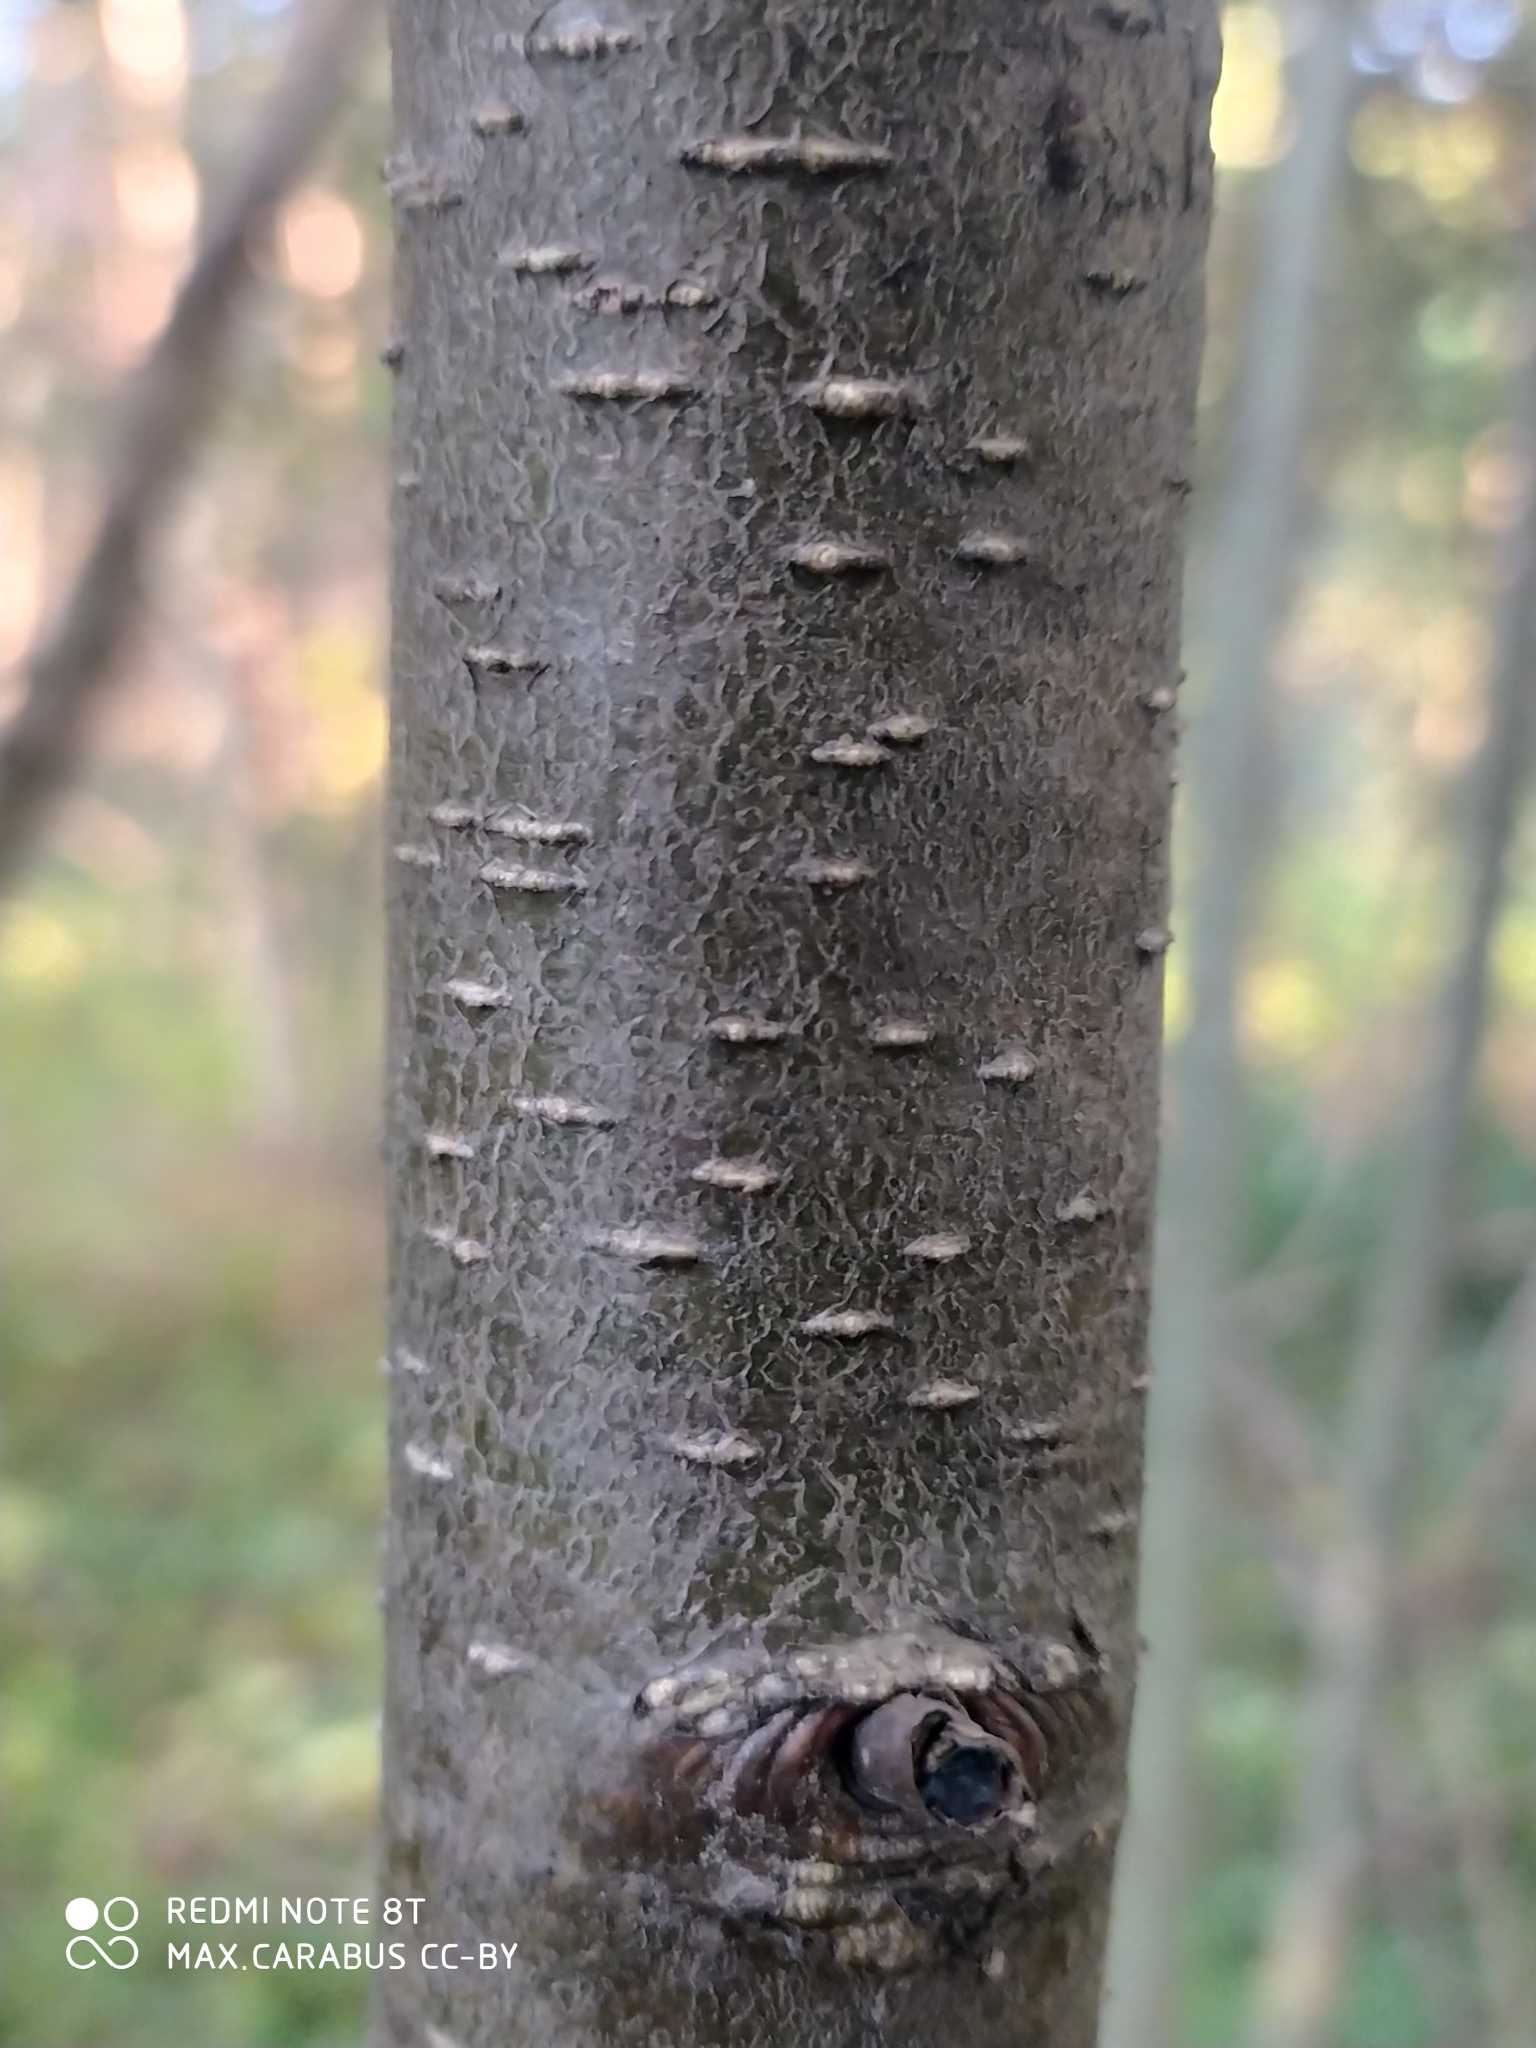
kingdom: Plantae
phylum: Tracheophyta
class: Magnoliopsida
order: Fagales
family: Betulaceae
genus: Alnus
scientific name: Alnus glutinosa
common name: Black alder
